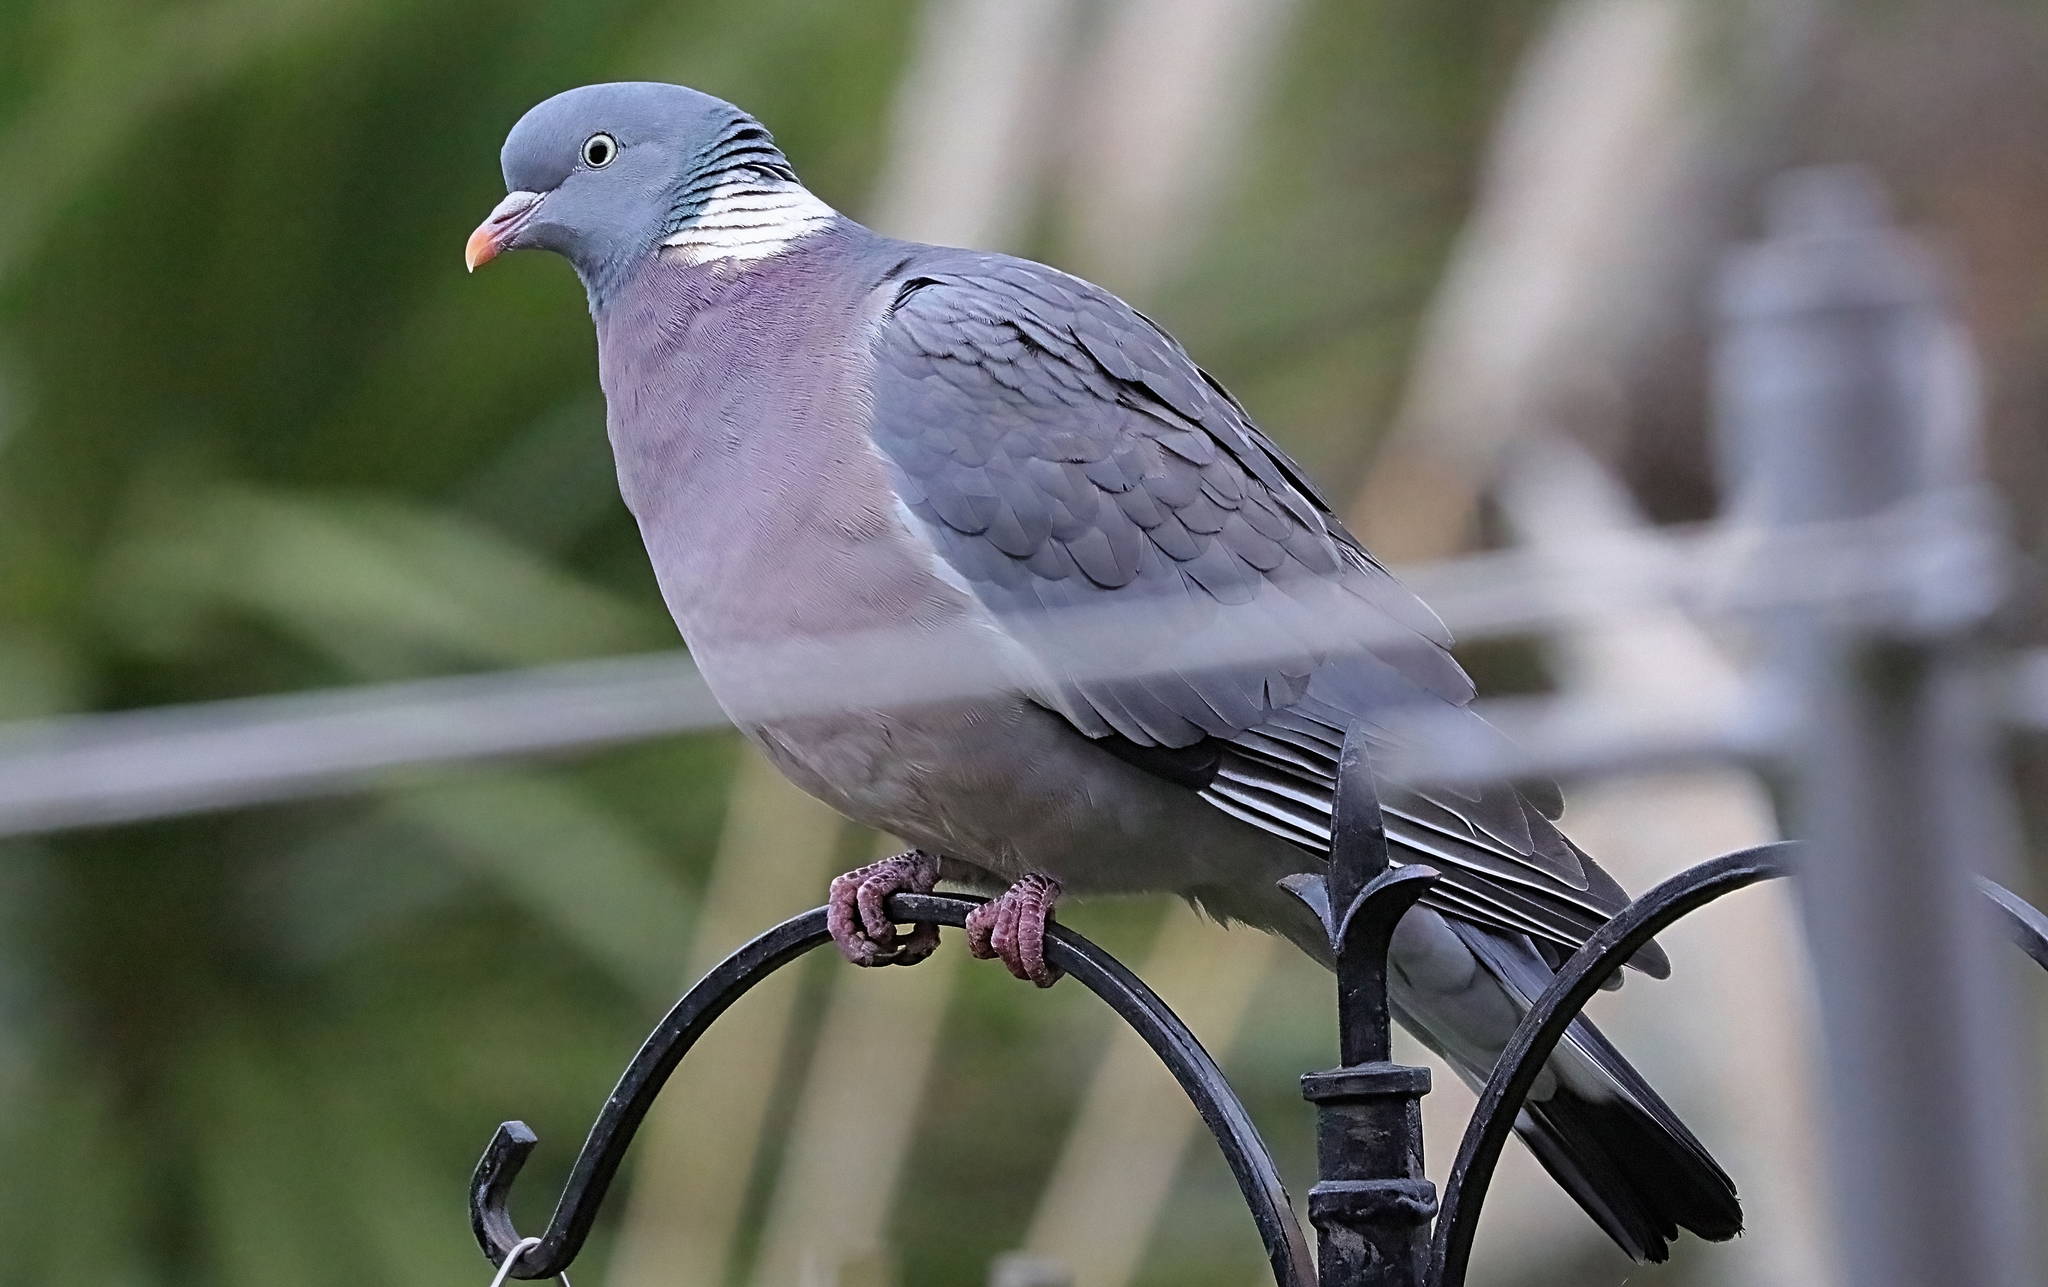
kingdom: Animalia
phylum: Chordata
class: Aves
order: Columbiformes
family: Columbidae
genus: Columba
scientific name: Columba palumbus
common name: Common wood pigeon
